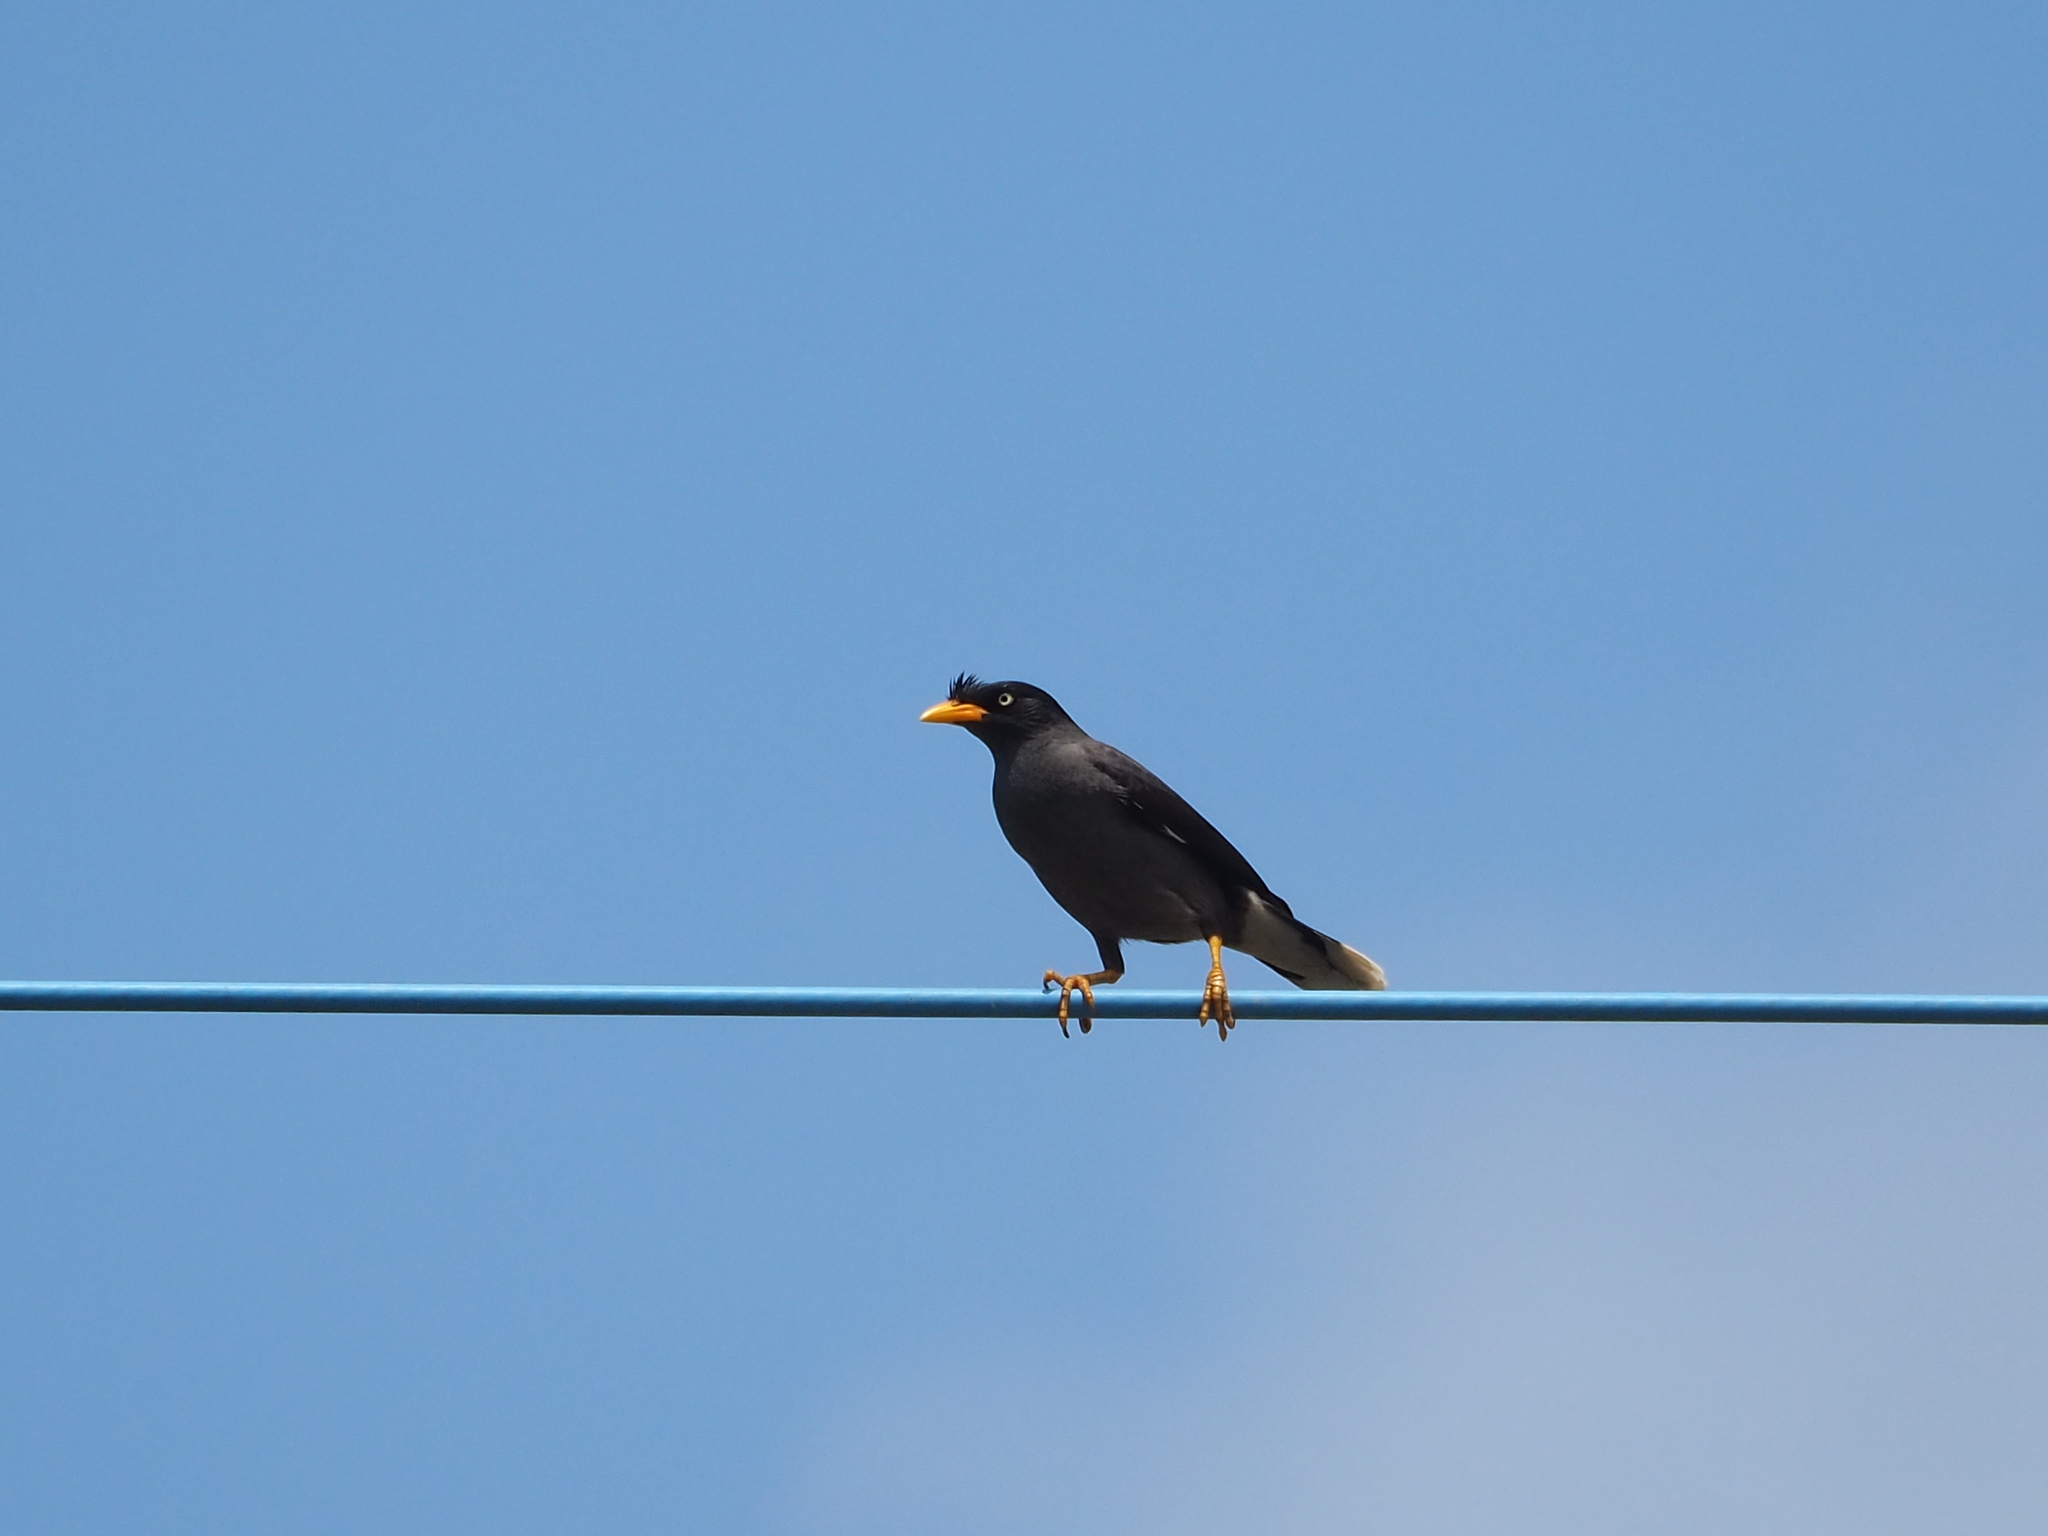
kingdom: Animalia
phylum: Chordata
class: Aves
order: Passeriformes
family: Sturnidae
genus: Acridotheres
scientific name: Acridotheres javanicus
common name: Javan myna
